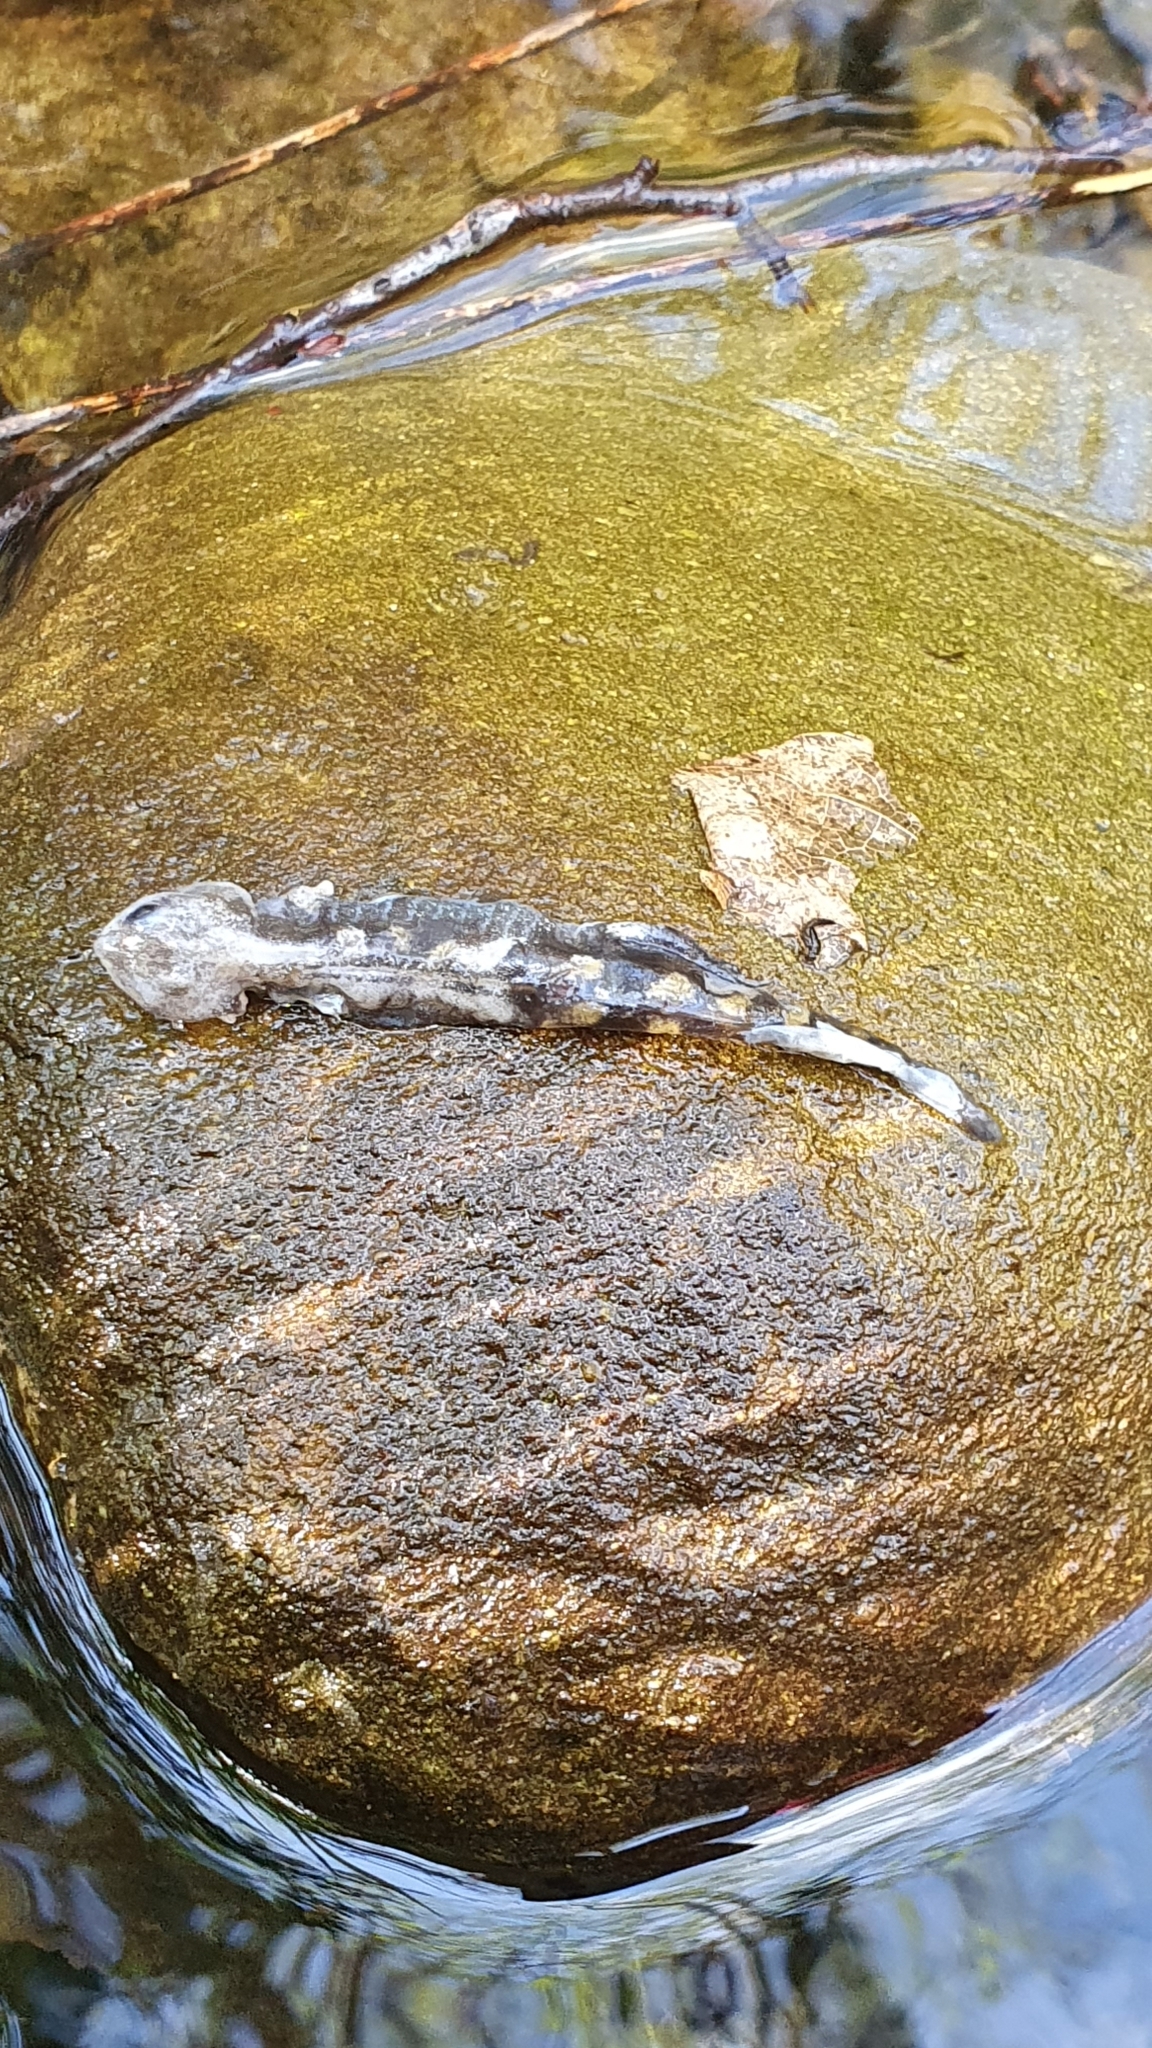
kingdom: Animalia
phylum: Chordata
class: Amphibia
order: Caudata
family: Salamandridae
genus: Salamandra
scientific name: Salamandra salamandra
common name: Fire salamander
